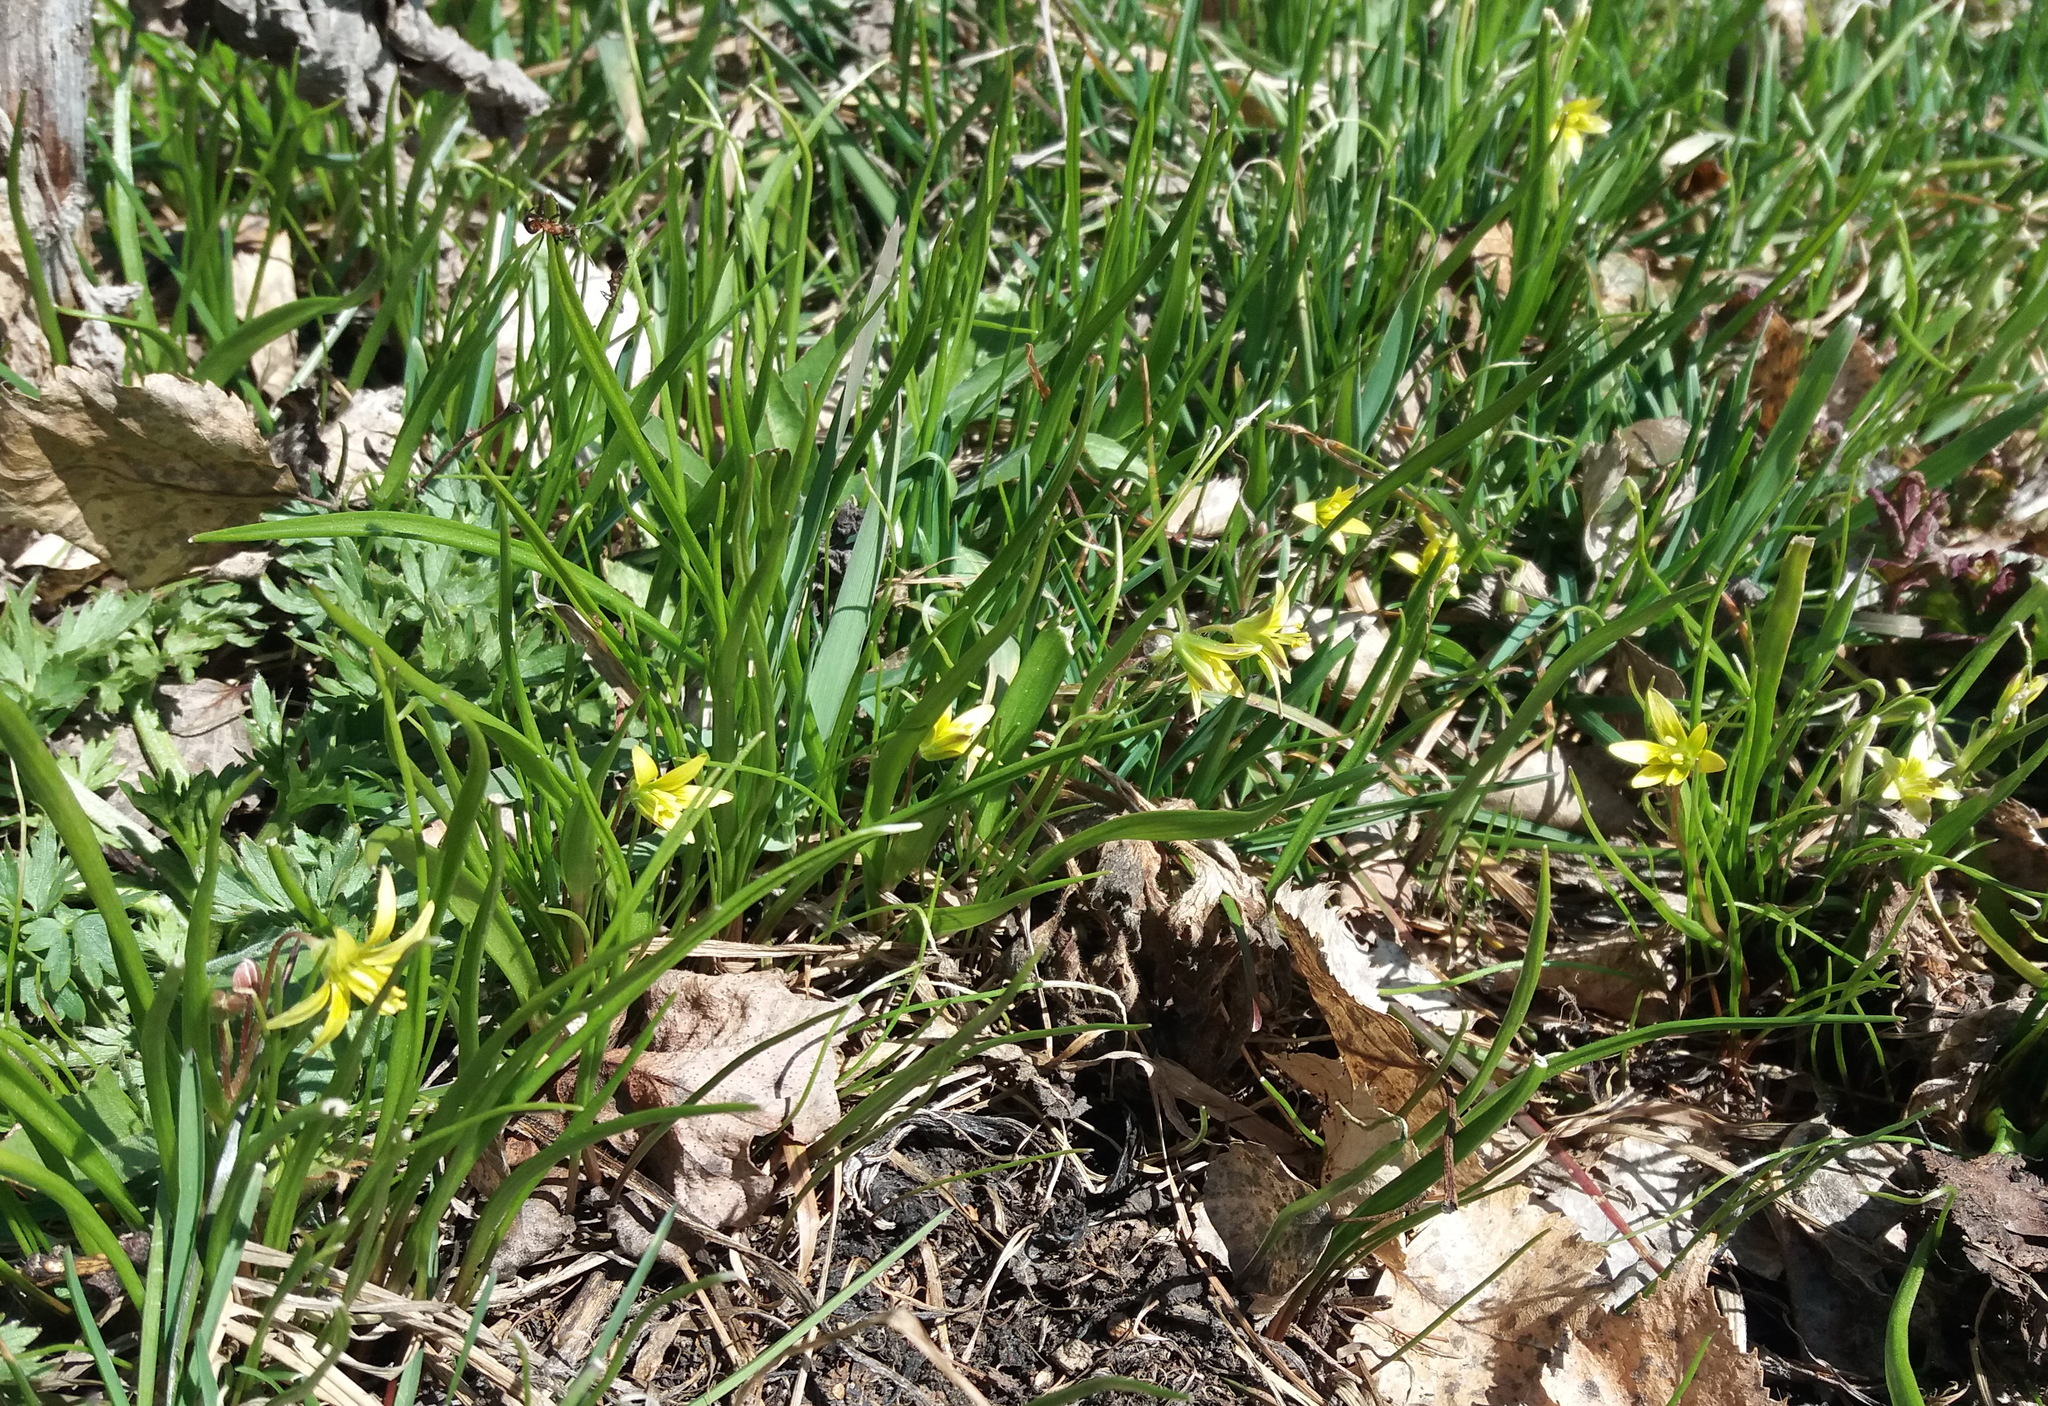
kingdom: Plantae
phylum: Tracheophyta
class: Liliopsida
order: Liliales
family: Liliaceae
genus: Gagea
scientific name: Gagea granulosa
